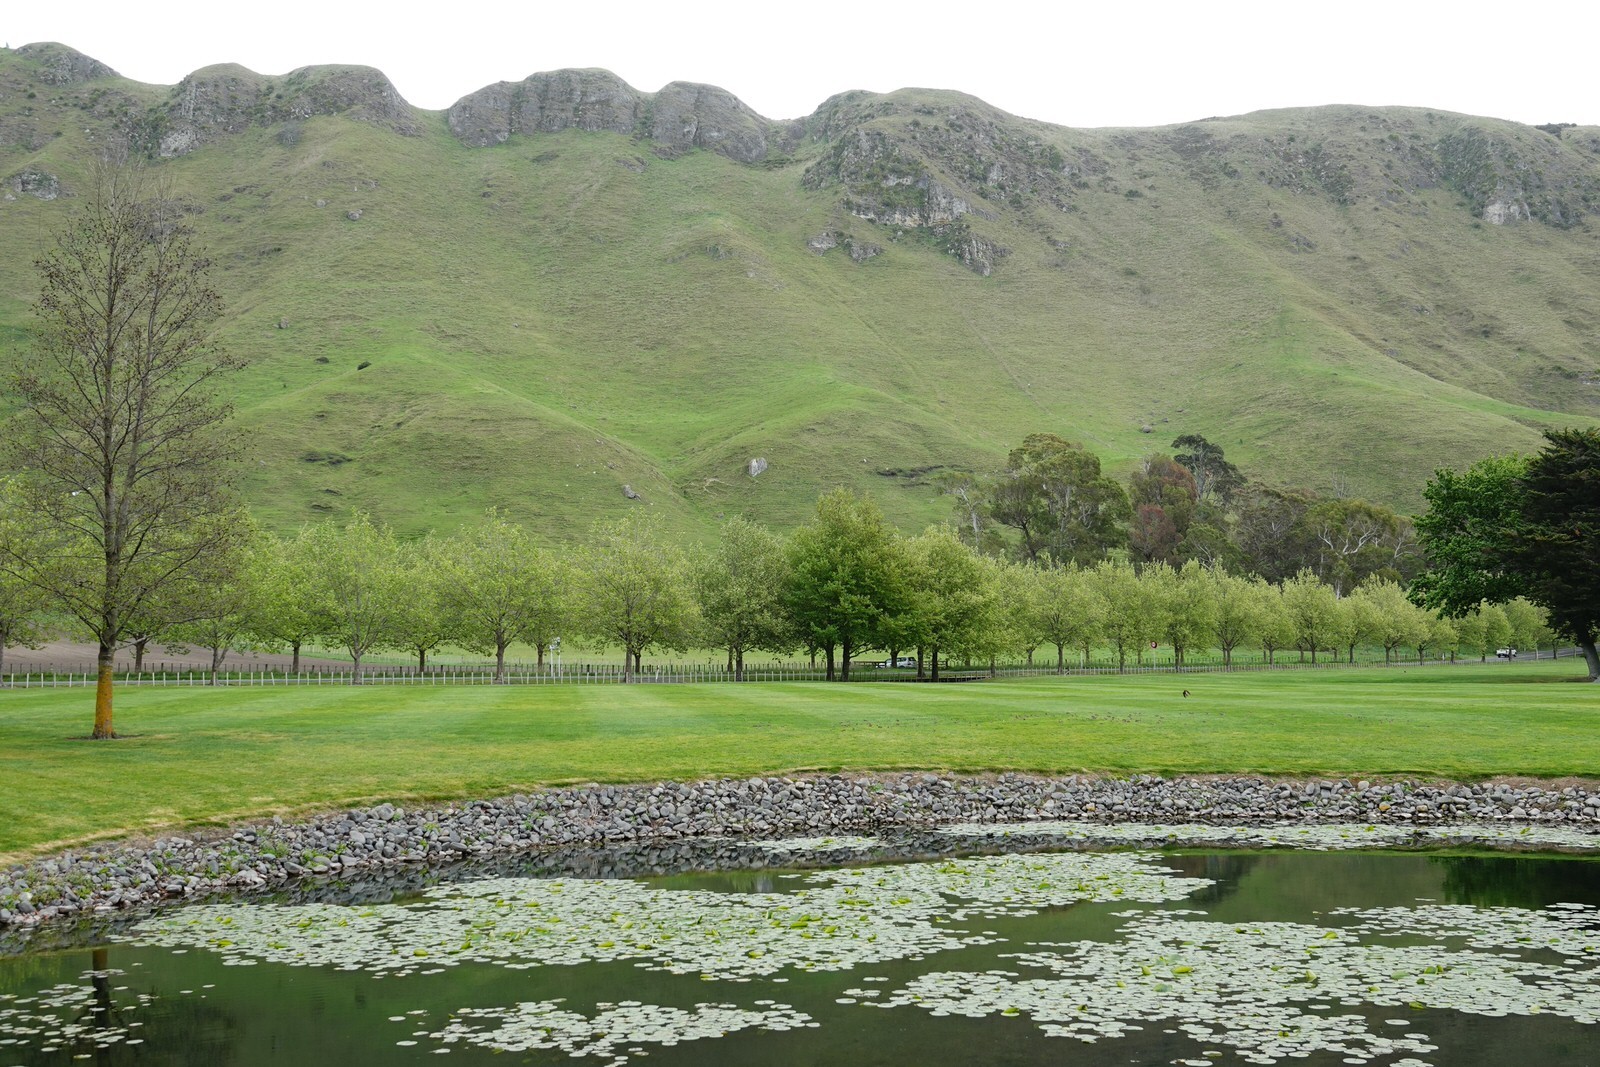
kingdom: Animalia
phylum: Chordata
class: Aves
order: Passeriformes
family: Passeridae
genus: Passer
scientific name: Passer domesticus
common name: House sparrow
